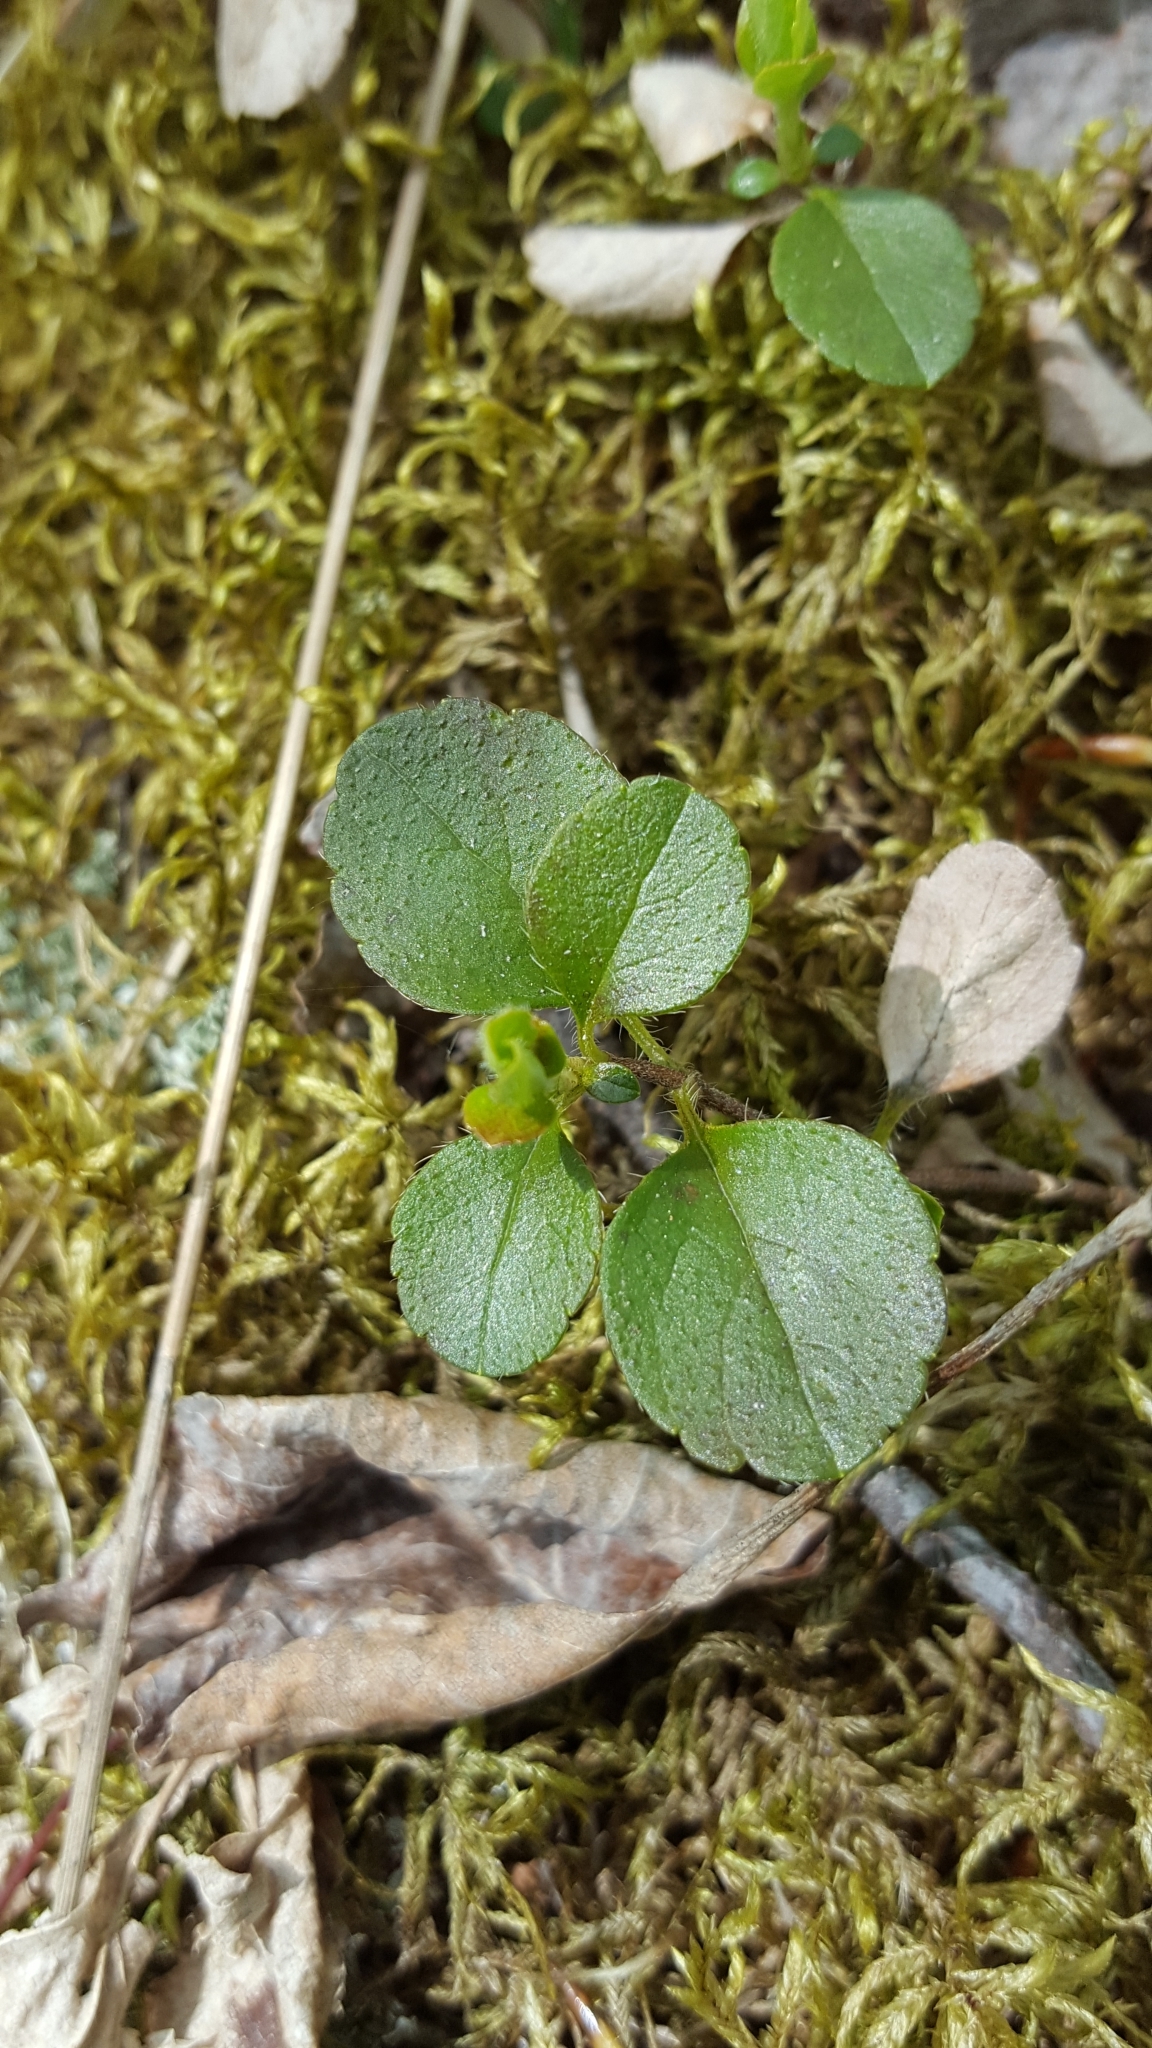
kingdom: Plantae
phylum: Tracheophyta
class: Magnoliopsida
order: Dipsacales
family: Caprifoliaceae
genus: Linnaea
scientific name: Linnaea borealis
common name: Twinflower
